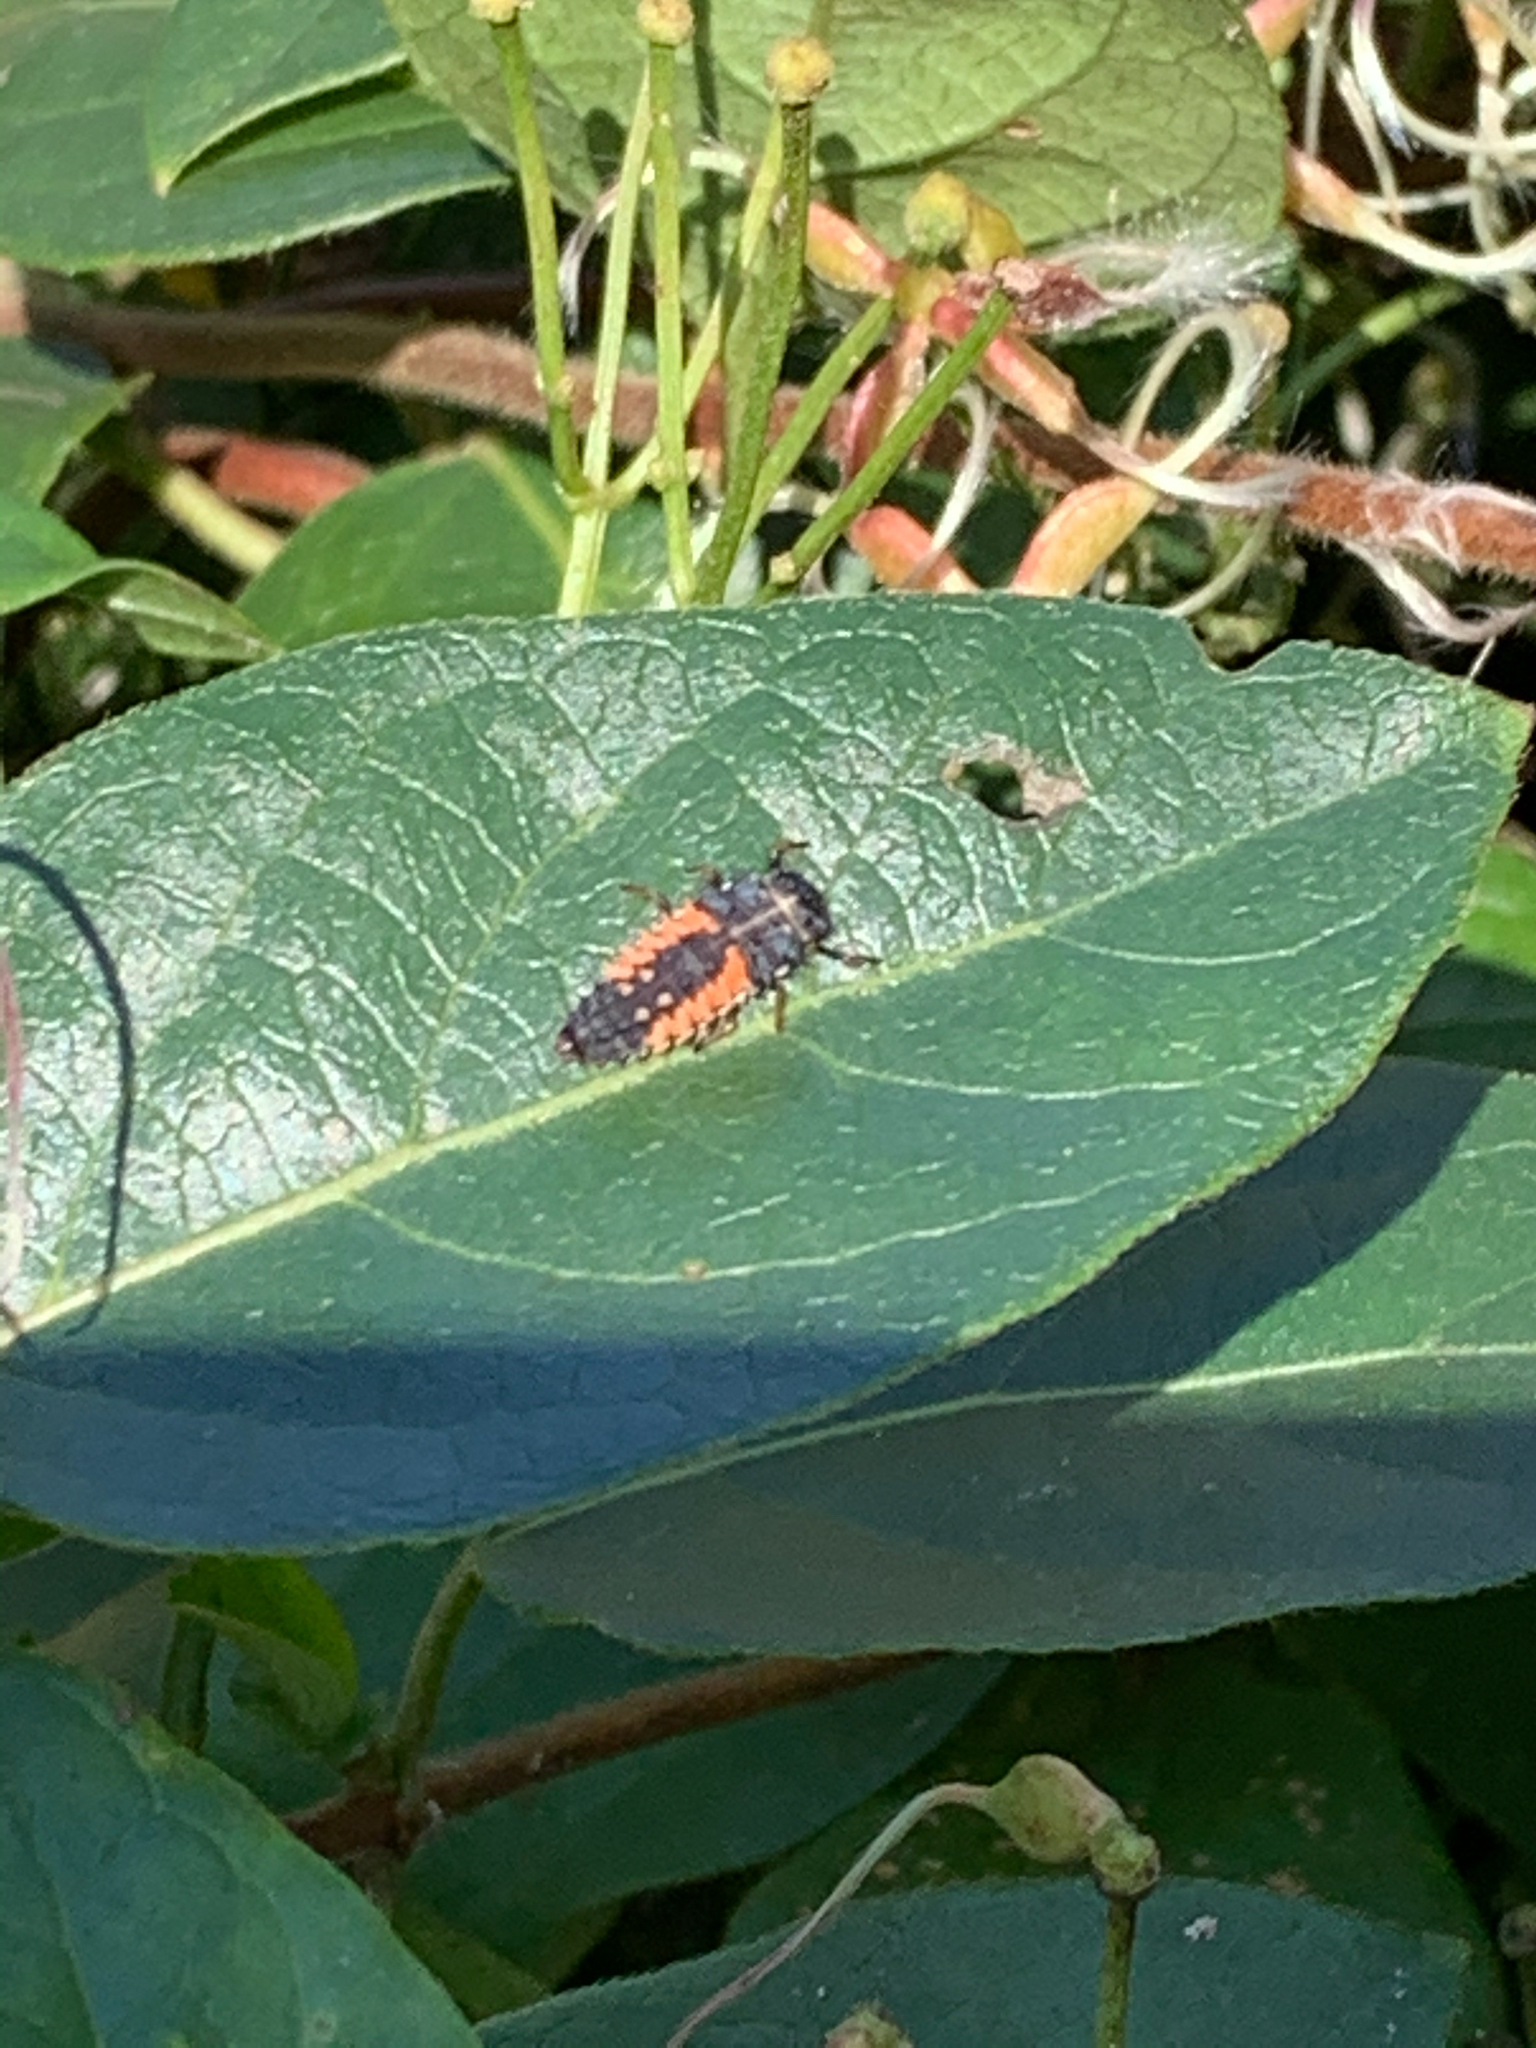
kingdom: Animalia
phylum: Arthropoda
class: Insecta
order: Coleoptera
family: Coccinellidae
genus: Harmonia
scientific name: Harmonia axyridis
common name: Harlequin ladybird
